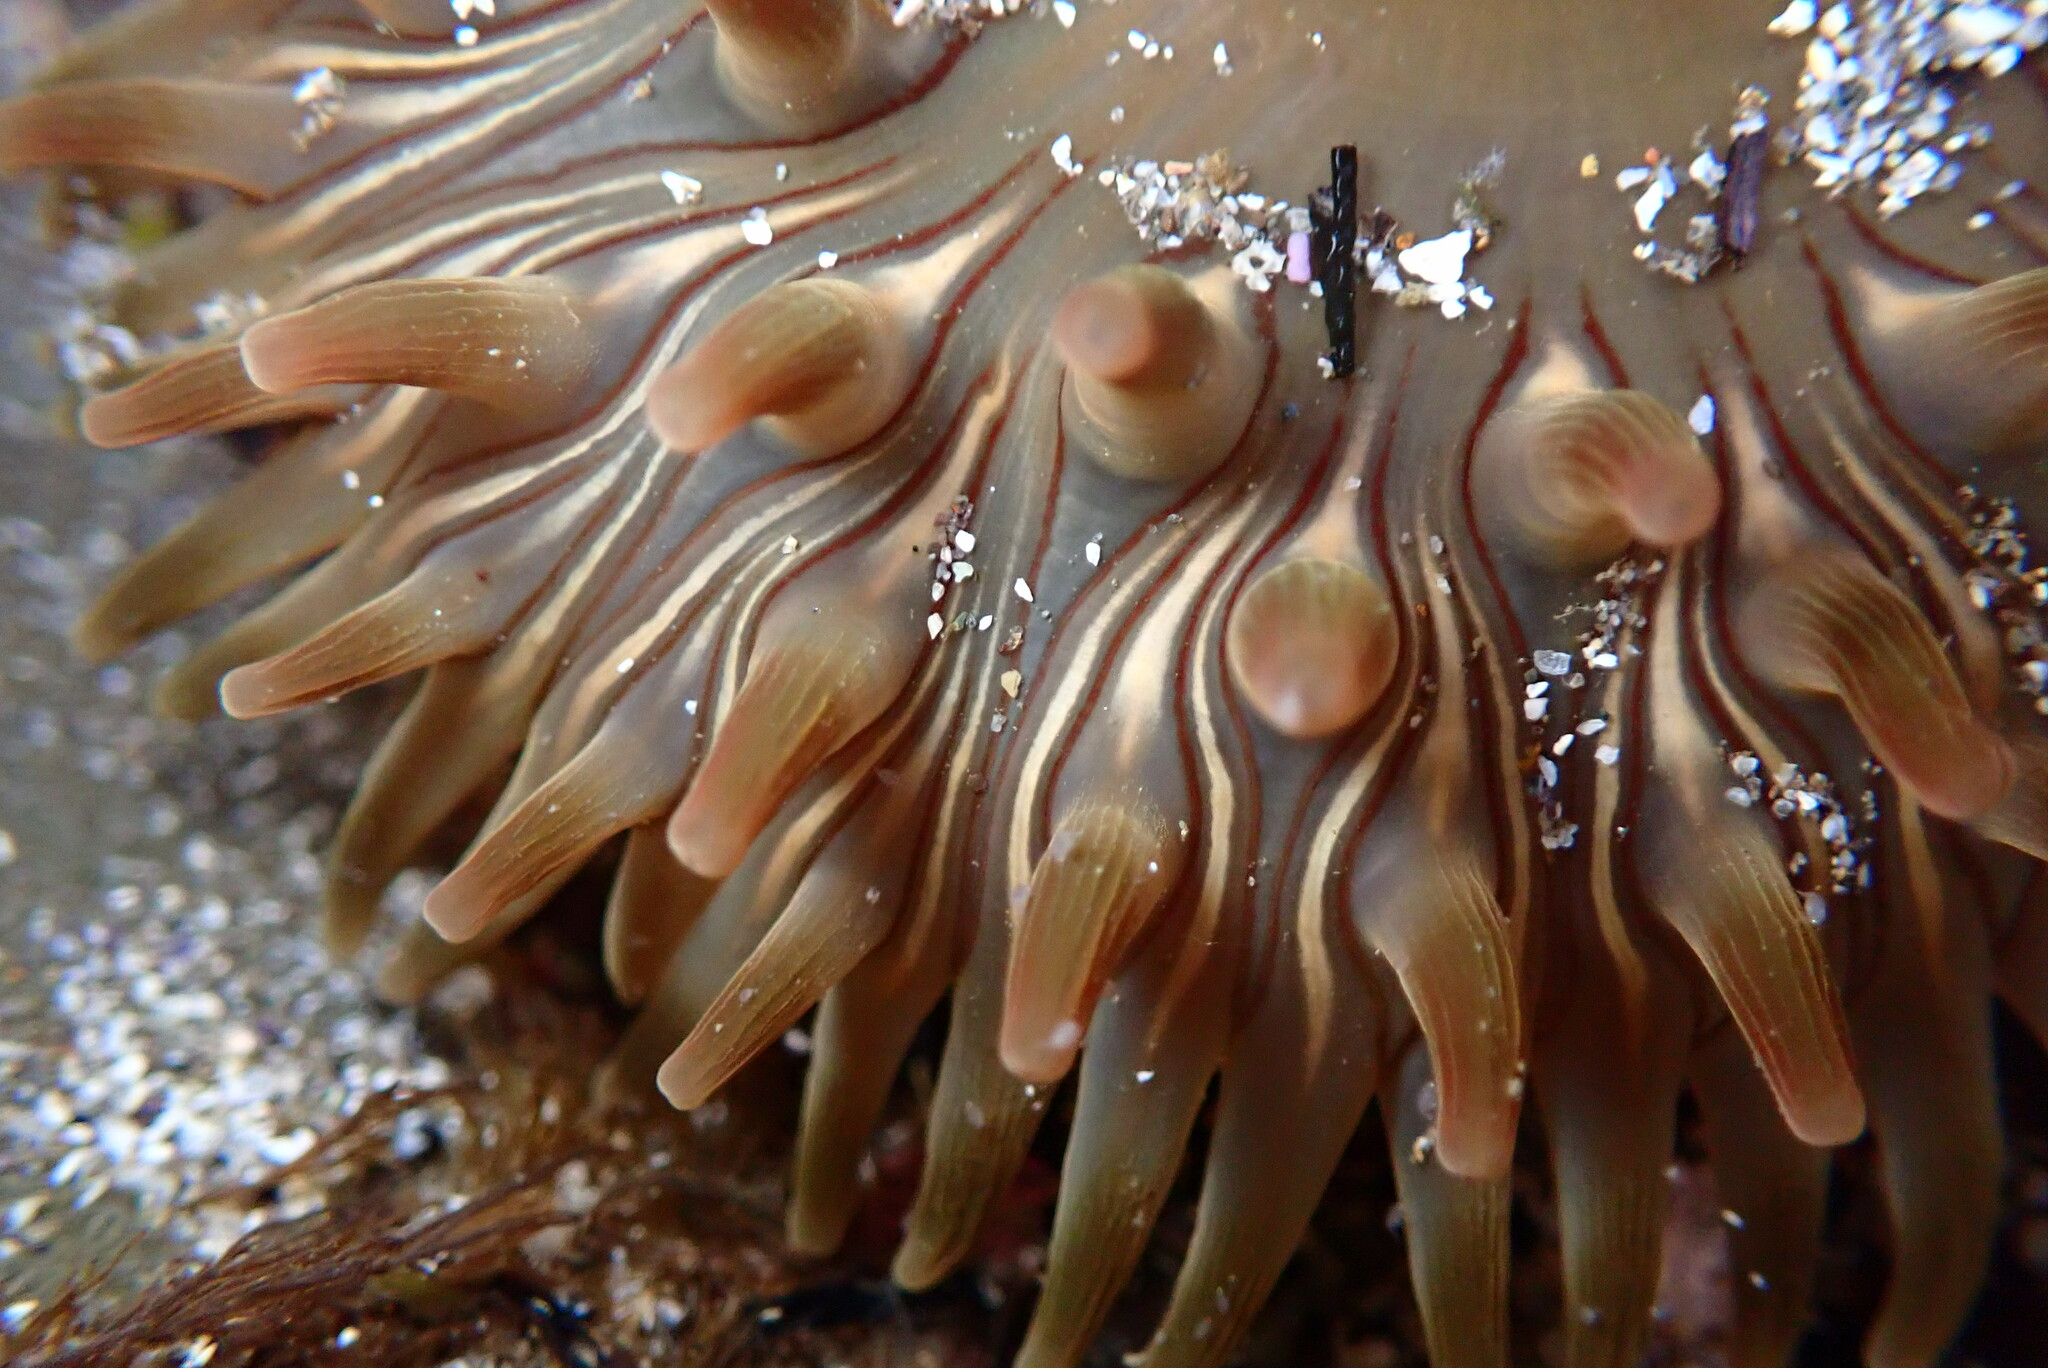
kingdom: Animalia
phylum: Cnidaria
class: Anthozoa
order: Actiniaria
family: Actiniidae
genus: Urticina
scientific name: Urticina clandestina
